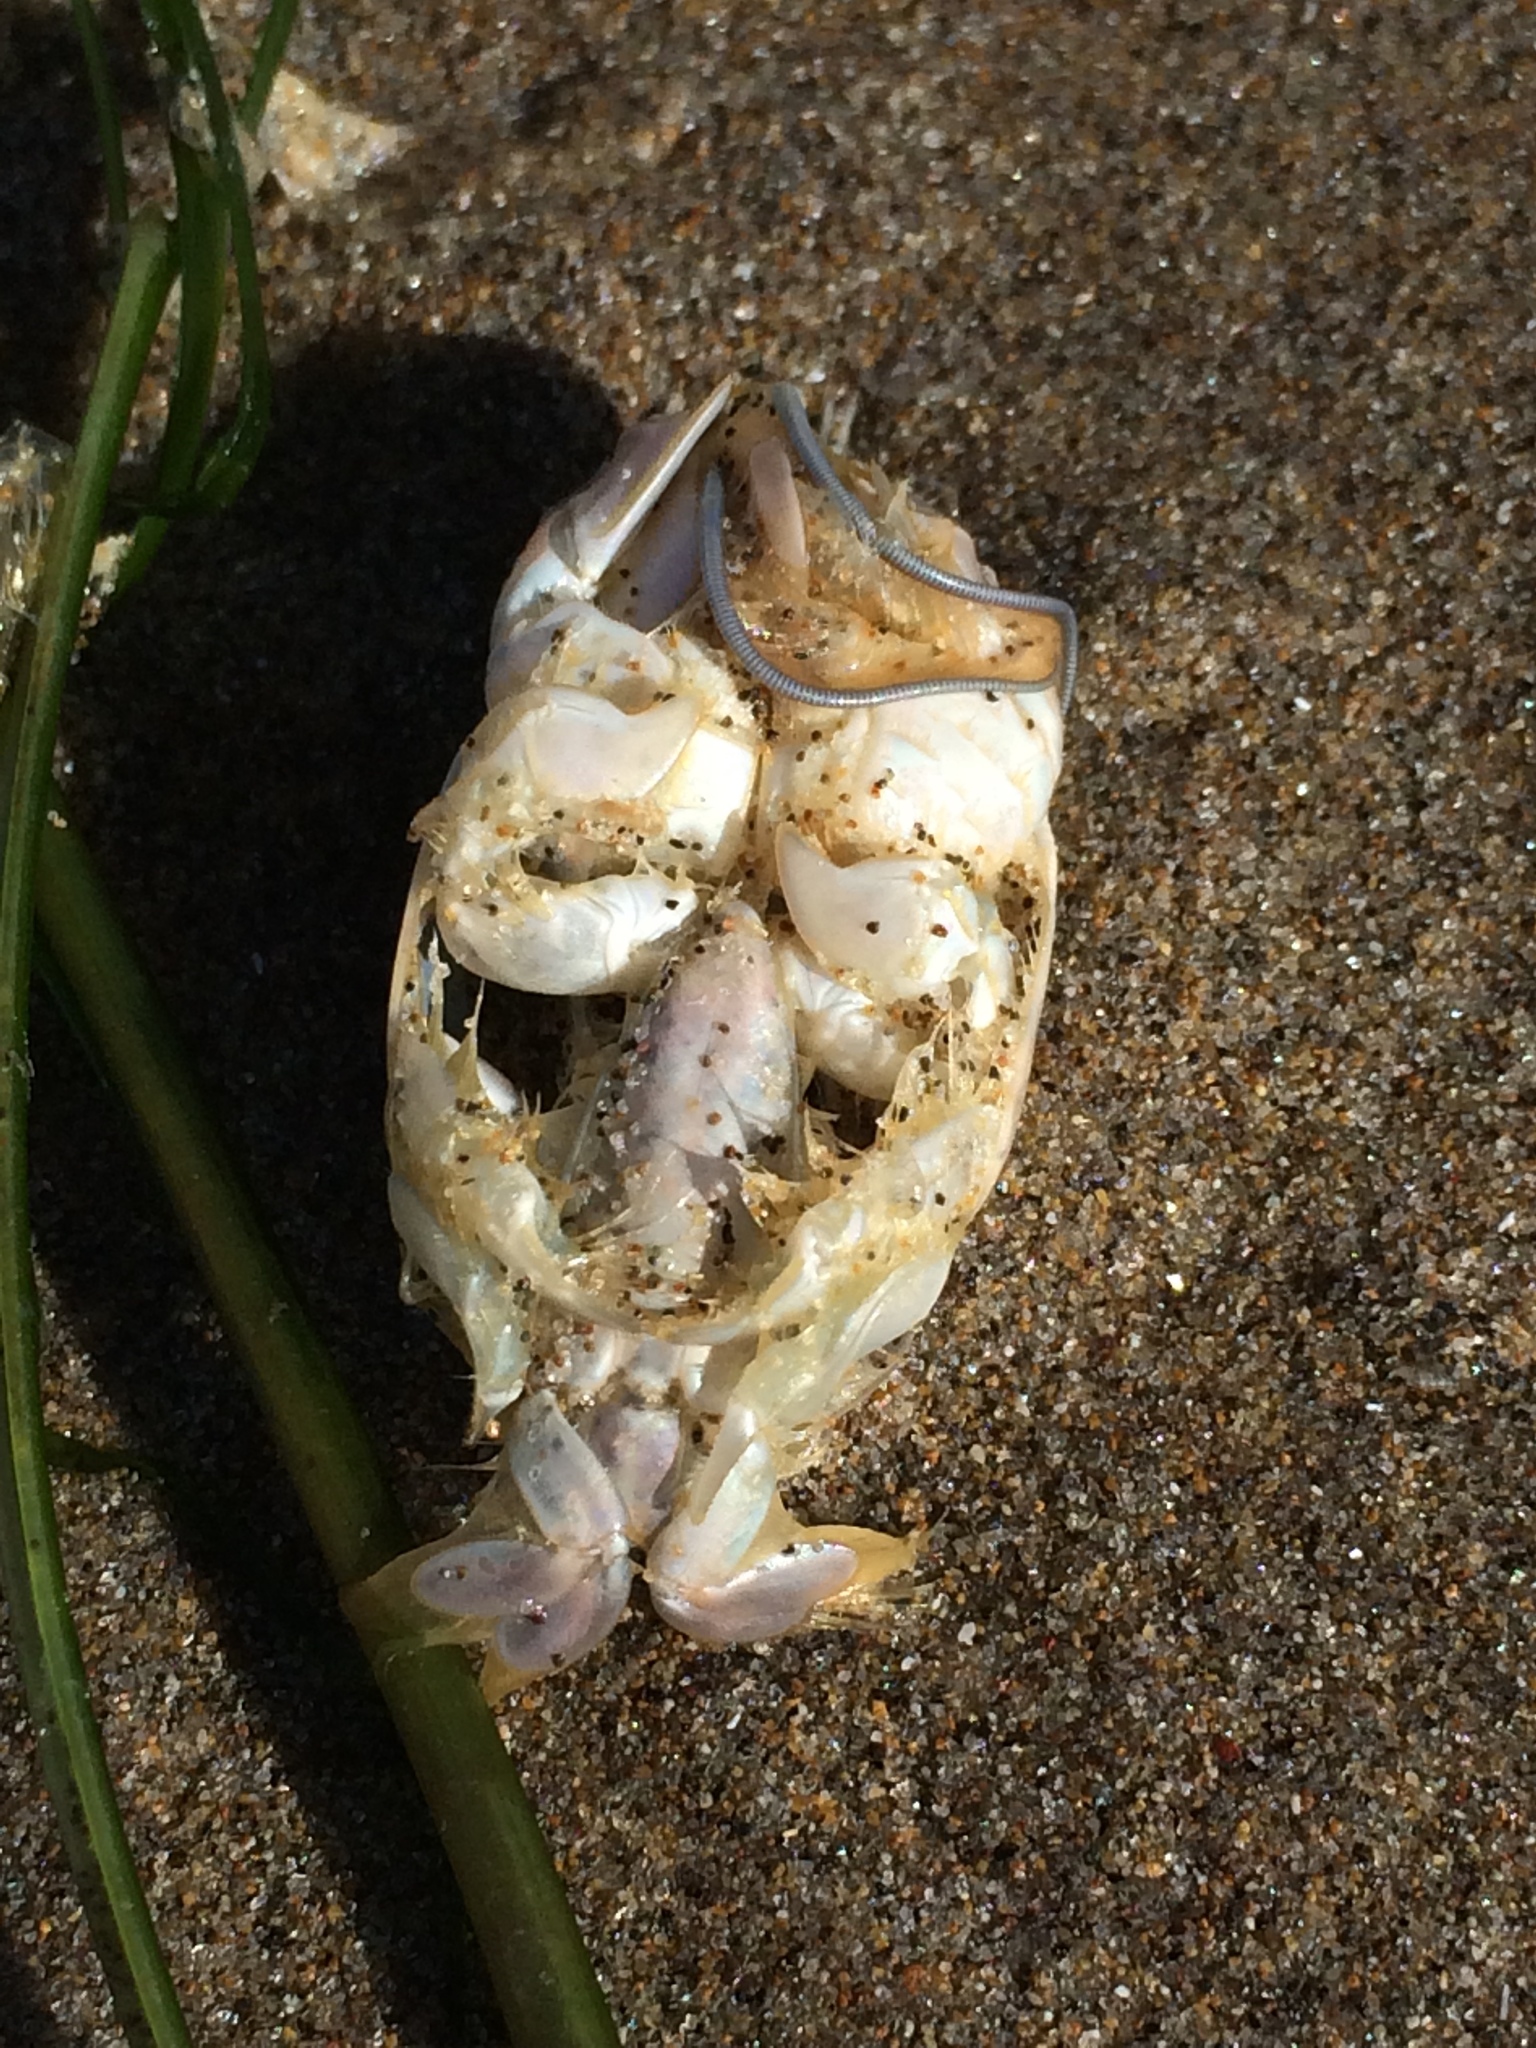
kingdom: Animalia
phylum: Arthropoda
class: Malacostraca
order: Decapoda
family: Hippidae
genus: Emerita
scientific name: Emerita analoga
